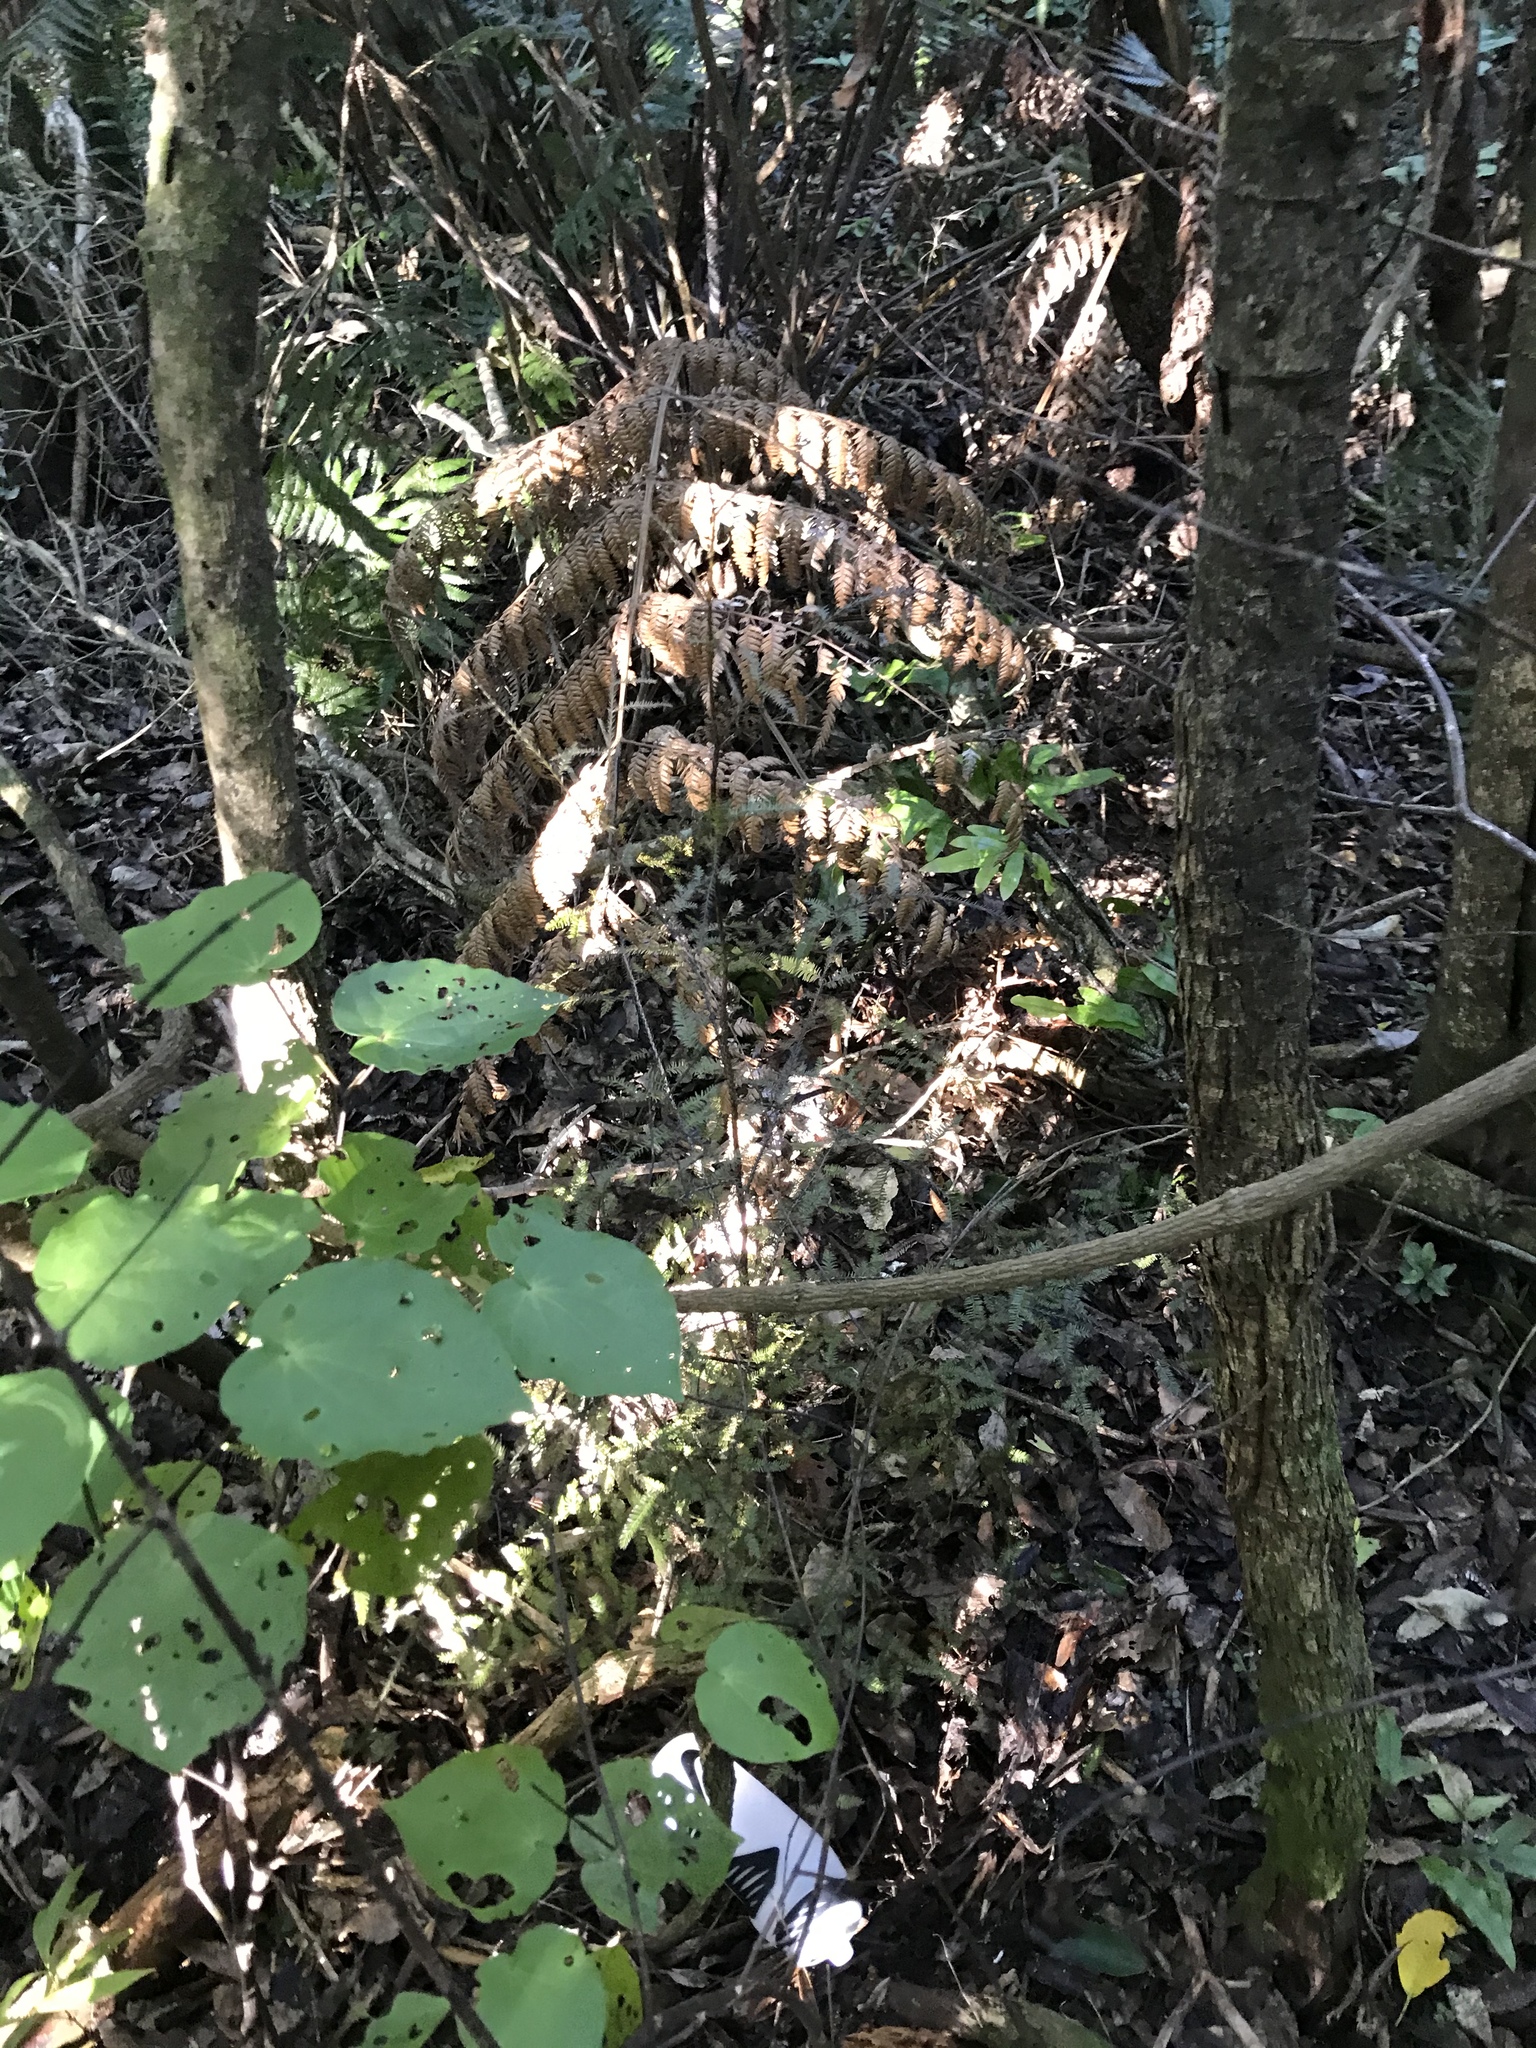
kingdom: Plantae
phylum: Tracheophyta
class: Pinopsida
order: Pinales
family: Podocarpaceae
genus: Dacrycarpus
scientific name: Dacrycarpus dacrydioides
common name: White pine
